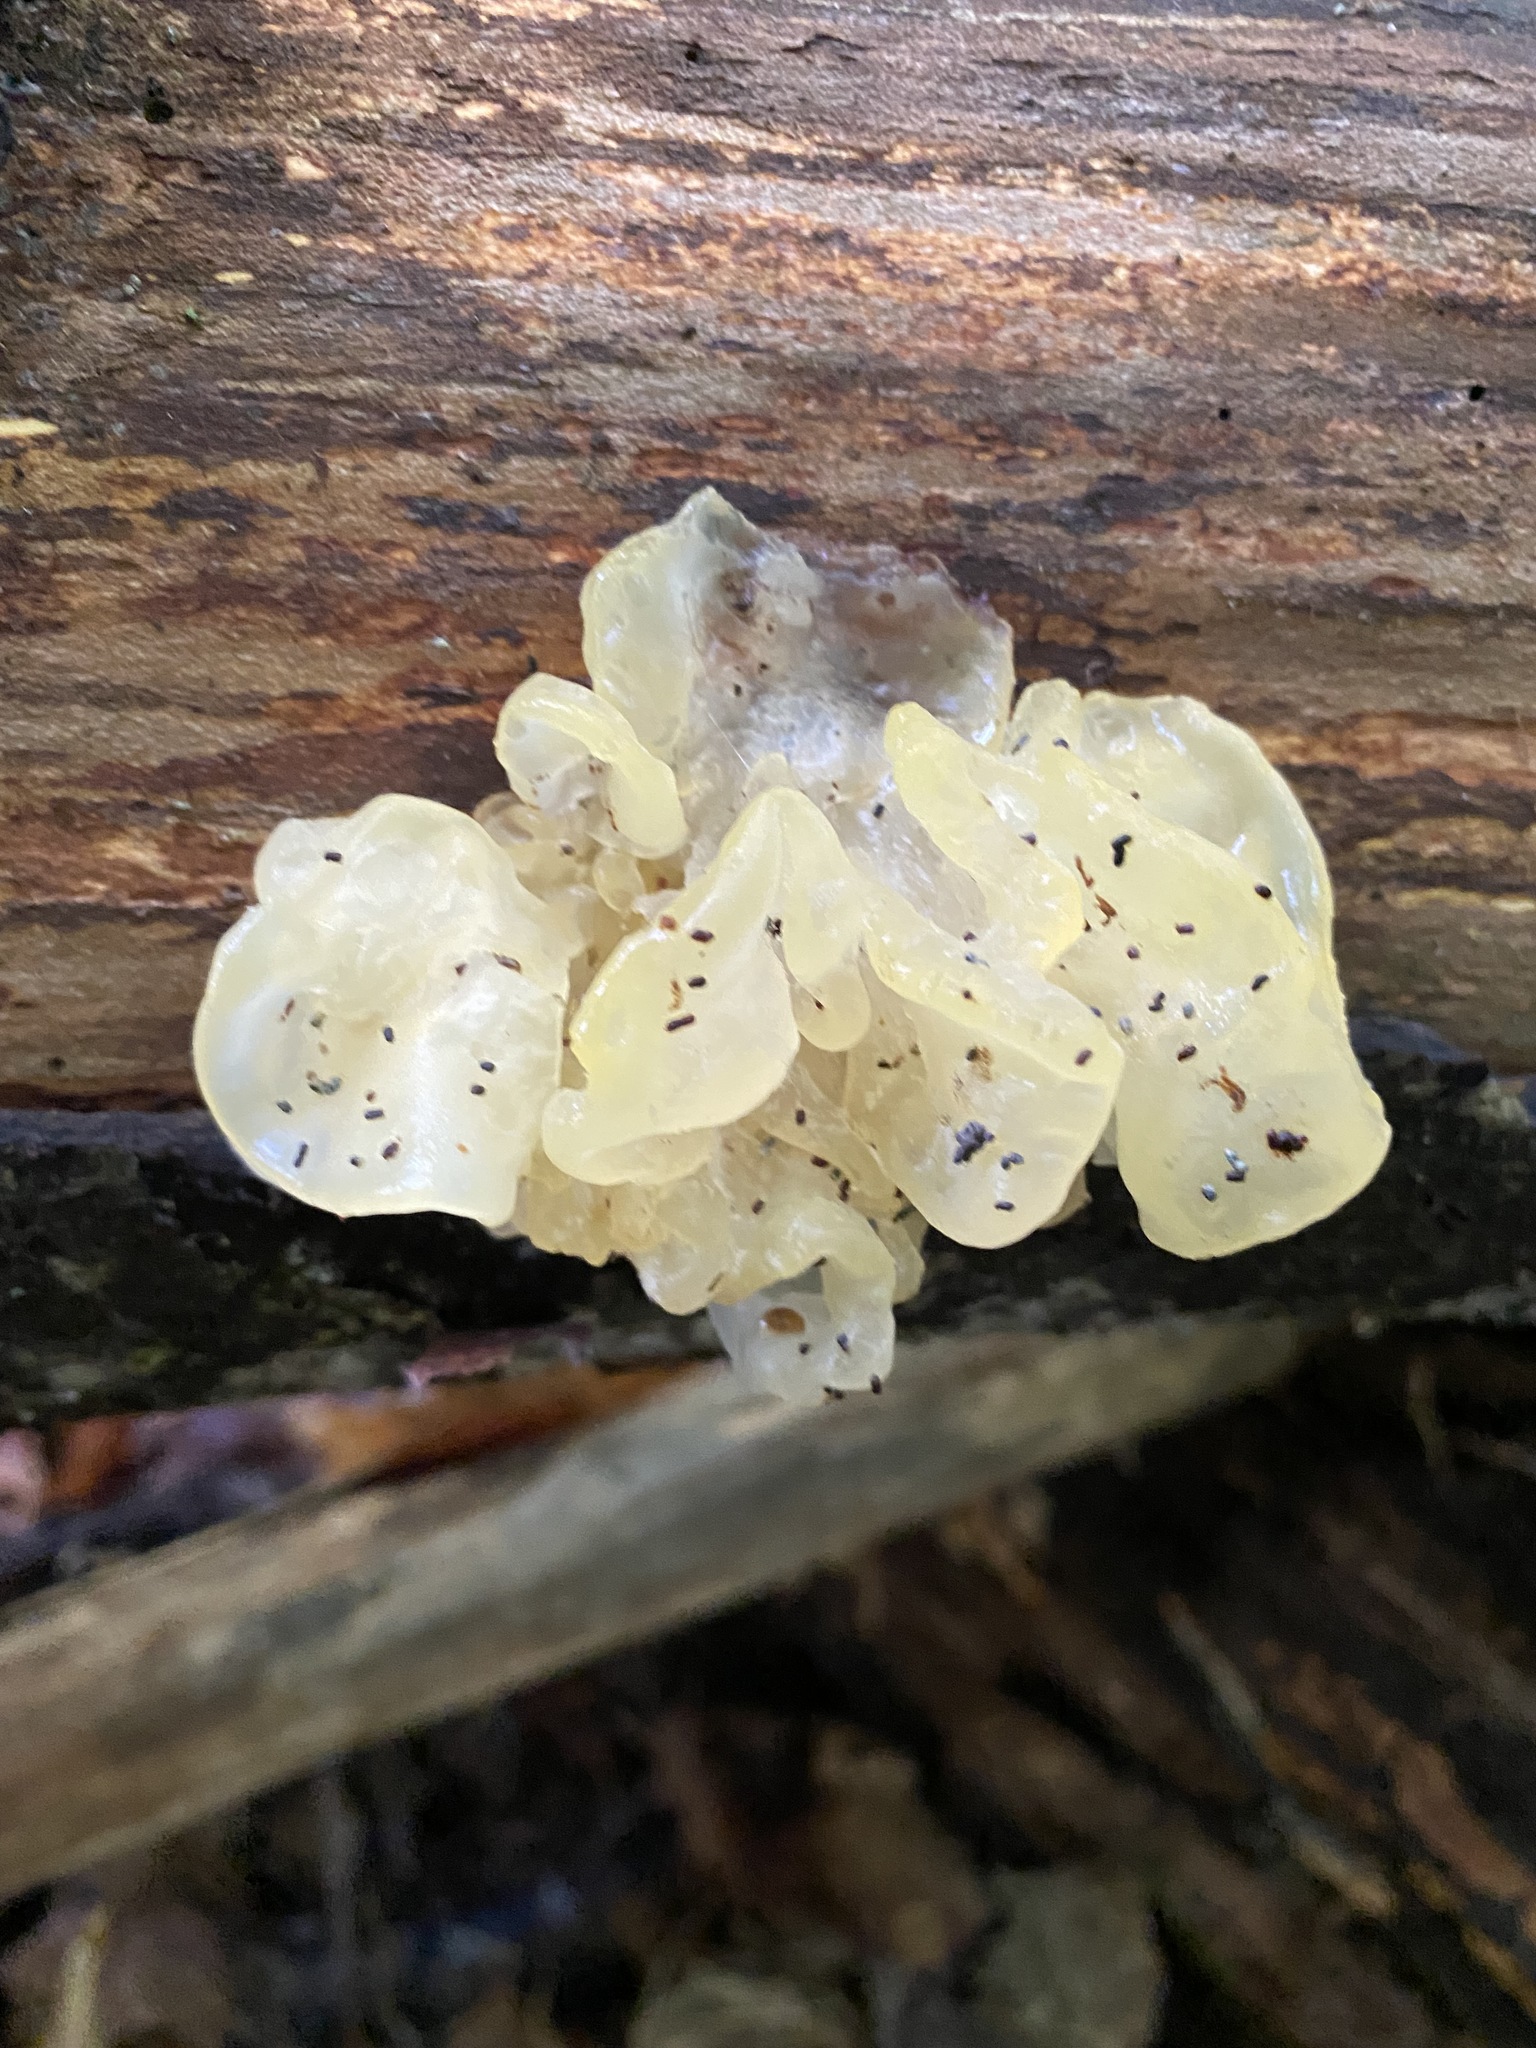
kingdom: Fungi
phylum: Basidiomycota
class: Agaricomycetes
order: Auriculariales
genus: Ductifera
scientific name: Ductifera pululahuana
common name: White jelly fungus
